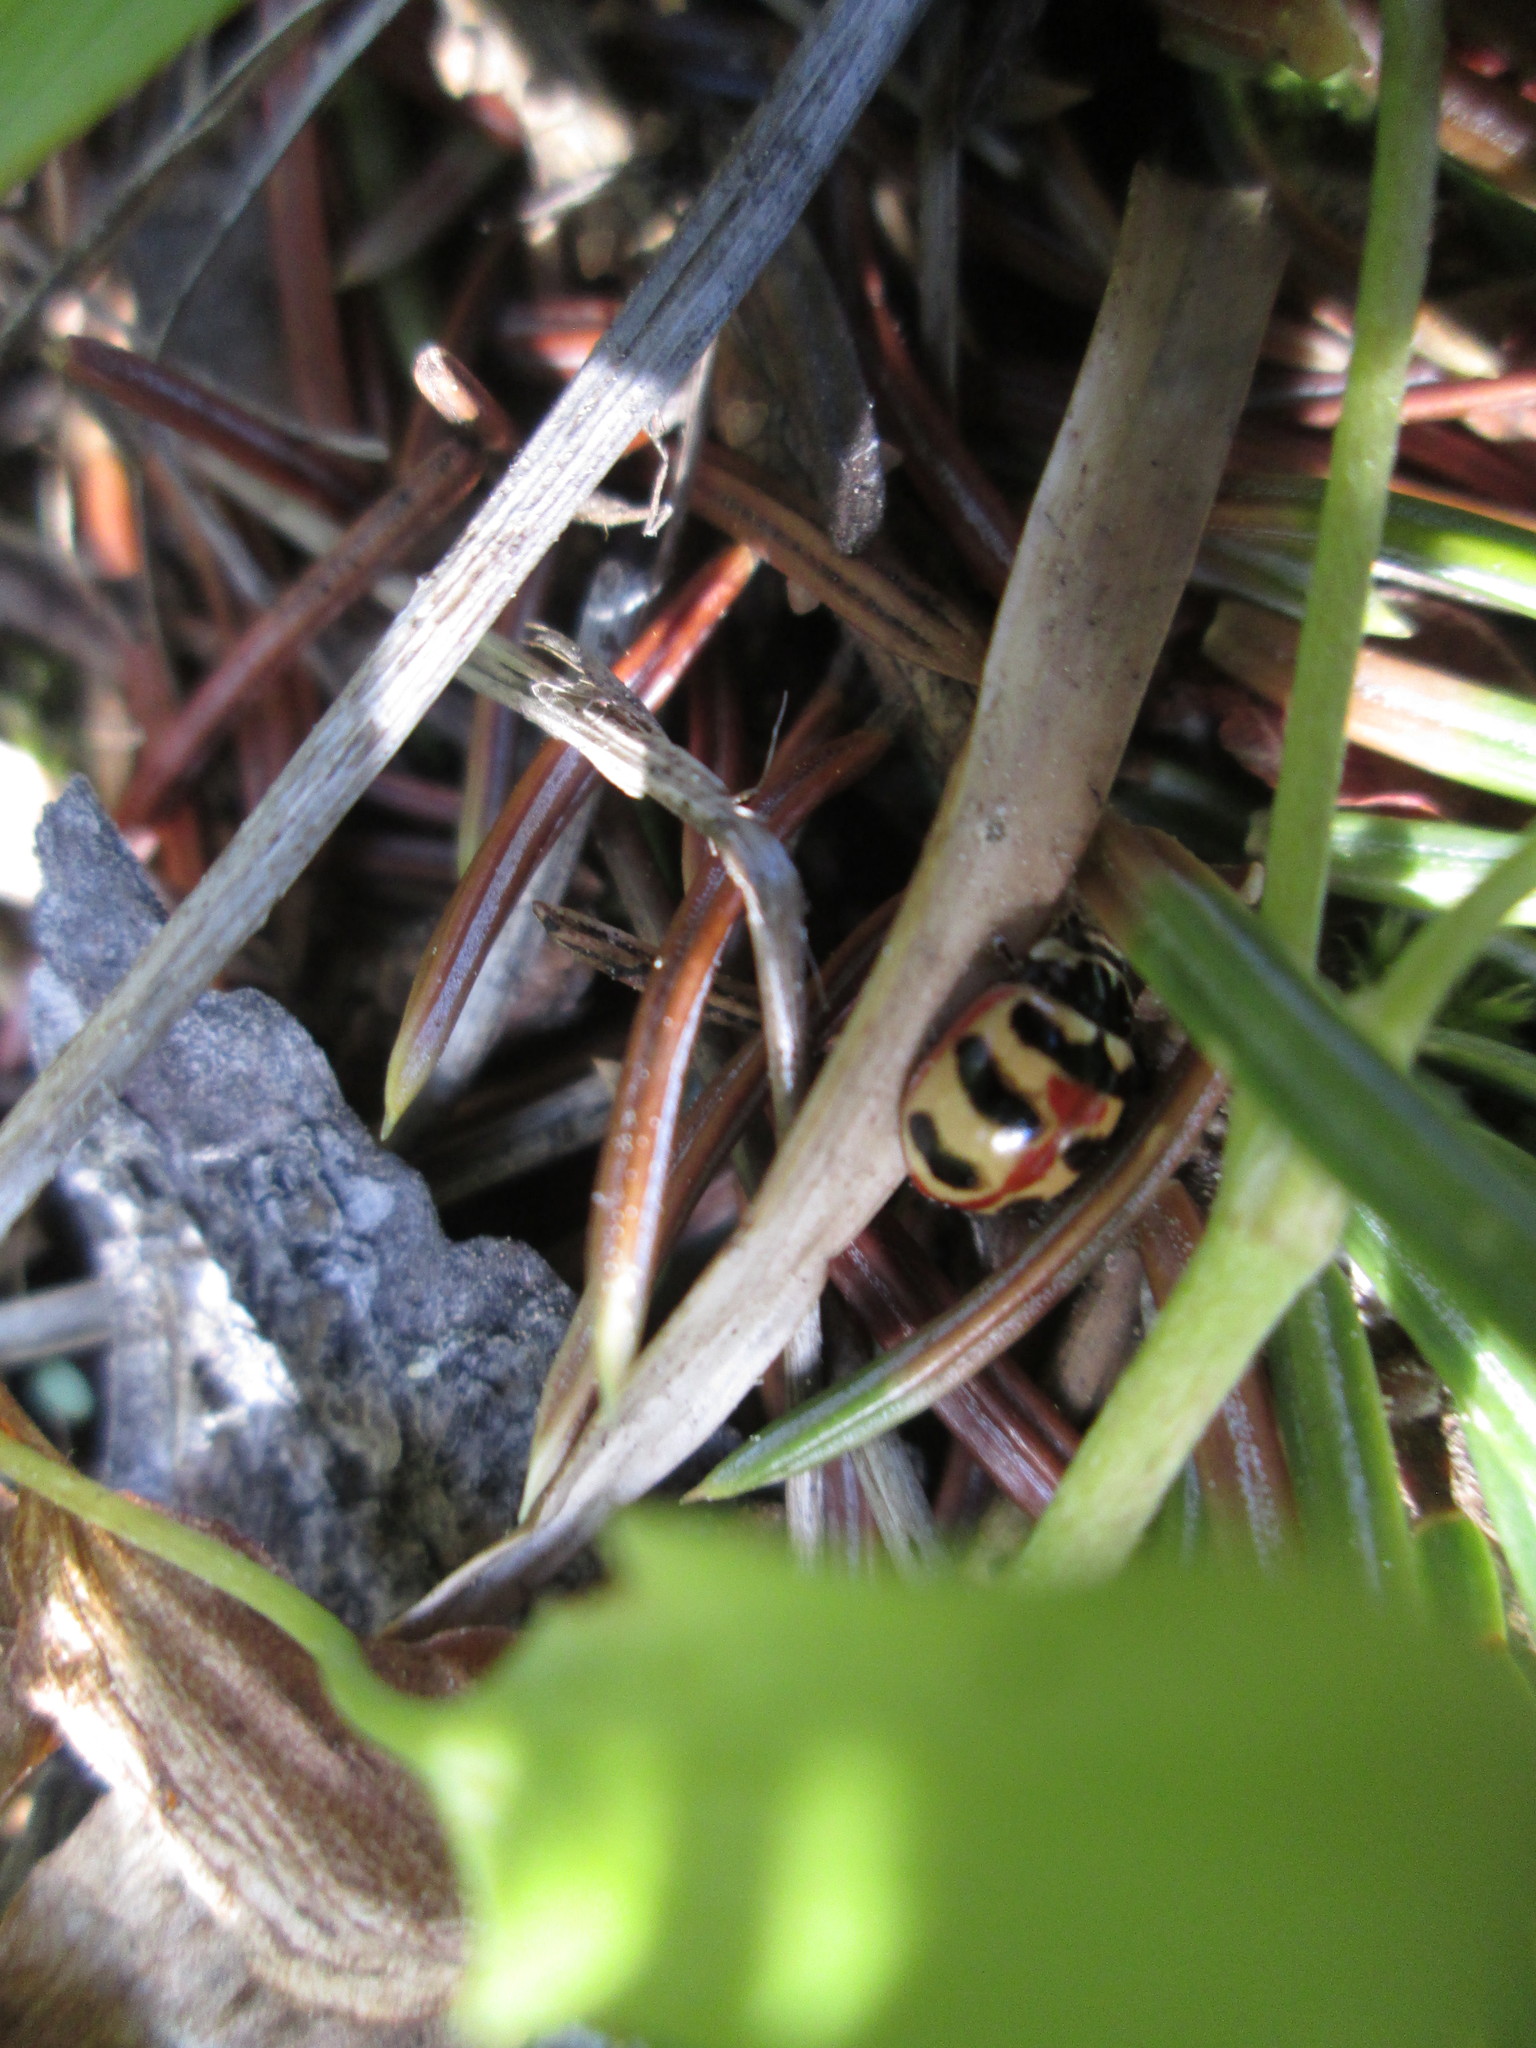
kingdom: Animalia
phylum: Arthropoda
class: Insecta
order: Coleoptera
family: Coccinellidae
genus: Coccinella
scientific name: Coccinella trifasciata
